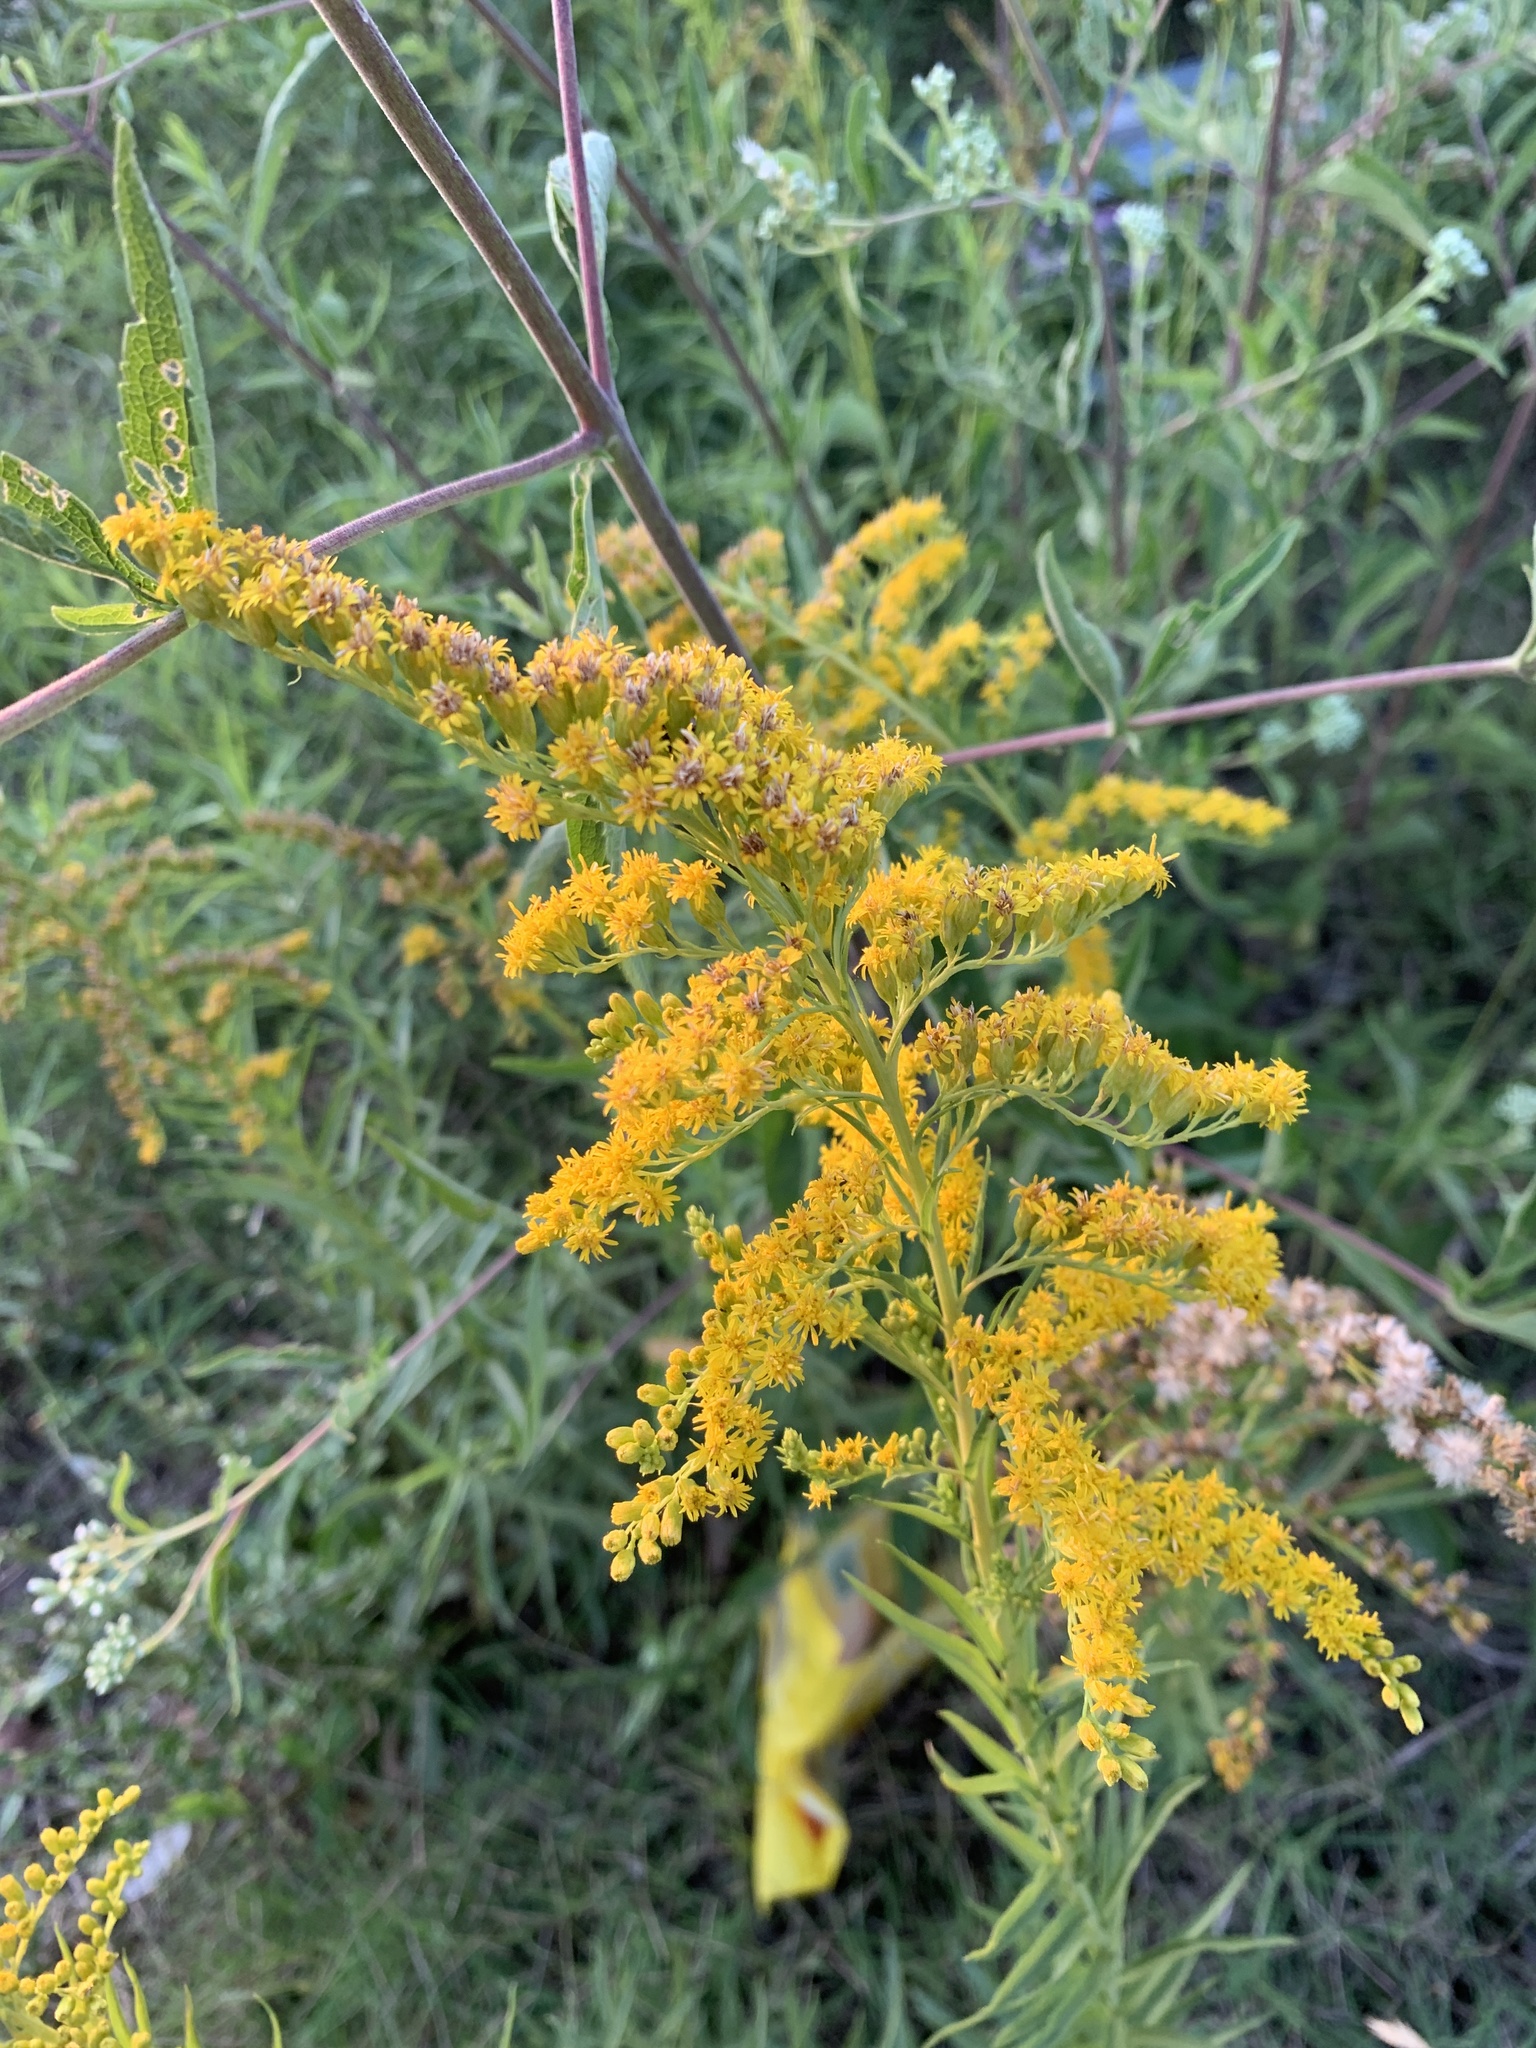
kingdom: Plantae
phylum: Tracheophyta
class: Magnoliopsida
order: Asterales
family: Asteraceae
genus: Solidago
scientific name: Solidago chilensis
